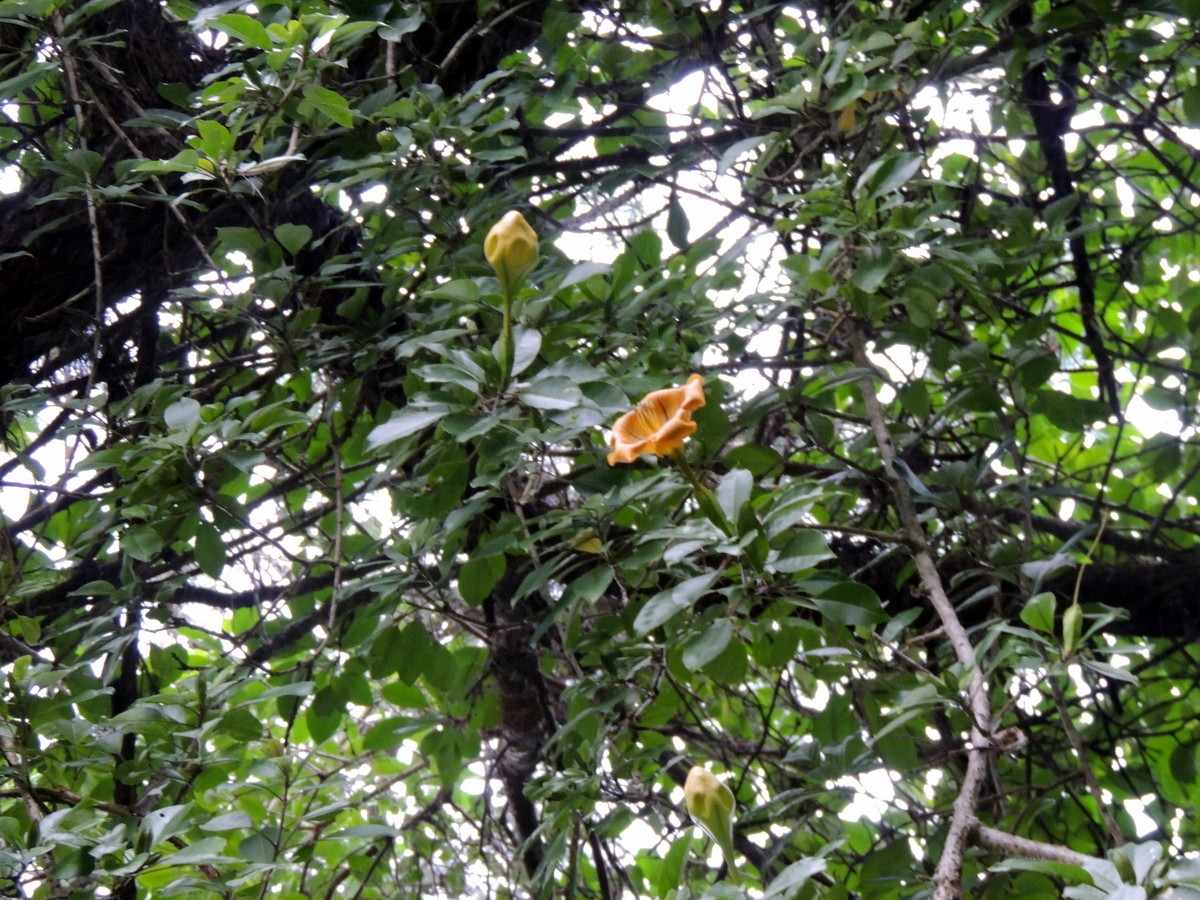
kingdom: Plantae
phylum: Tracheophyta
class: Magnoliopsida
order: Solanales
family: Solanaceae
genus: Solandra
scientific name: Solandra maxima
